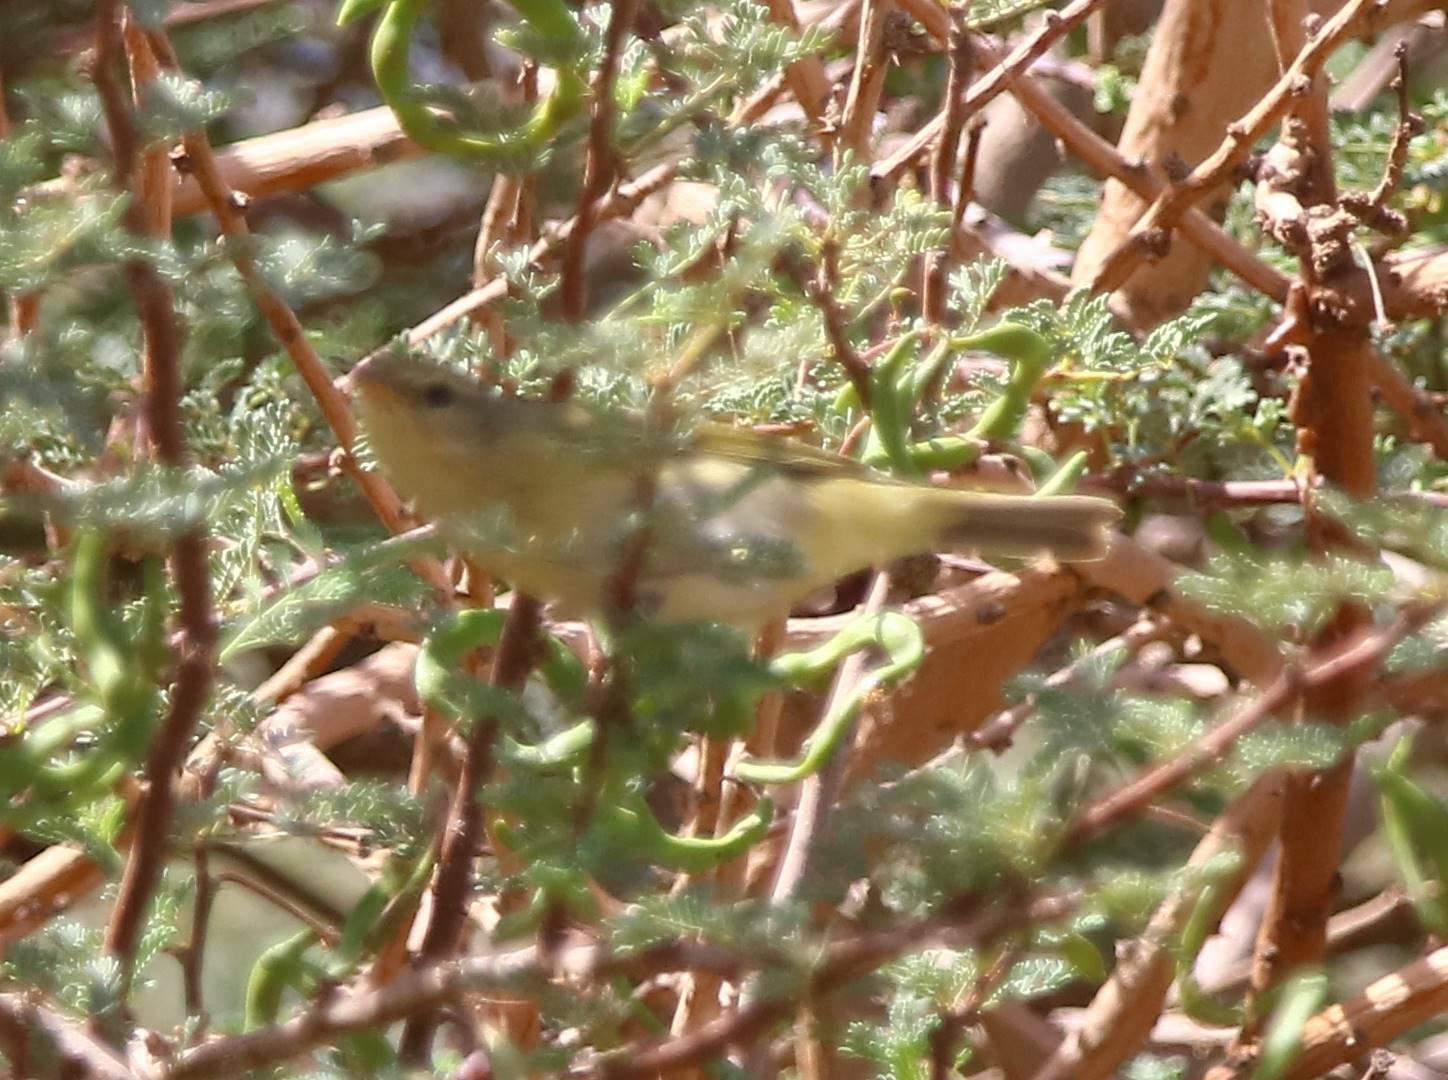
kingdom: Animalia
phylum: Chordata
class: Aves
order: Passeriformes
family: Phylloscopidae
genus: Phylloscopus
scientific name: Phylloscopus bonelli
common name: Western bonelli's warbler
